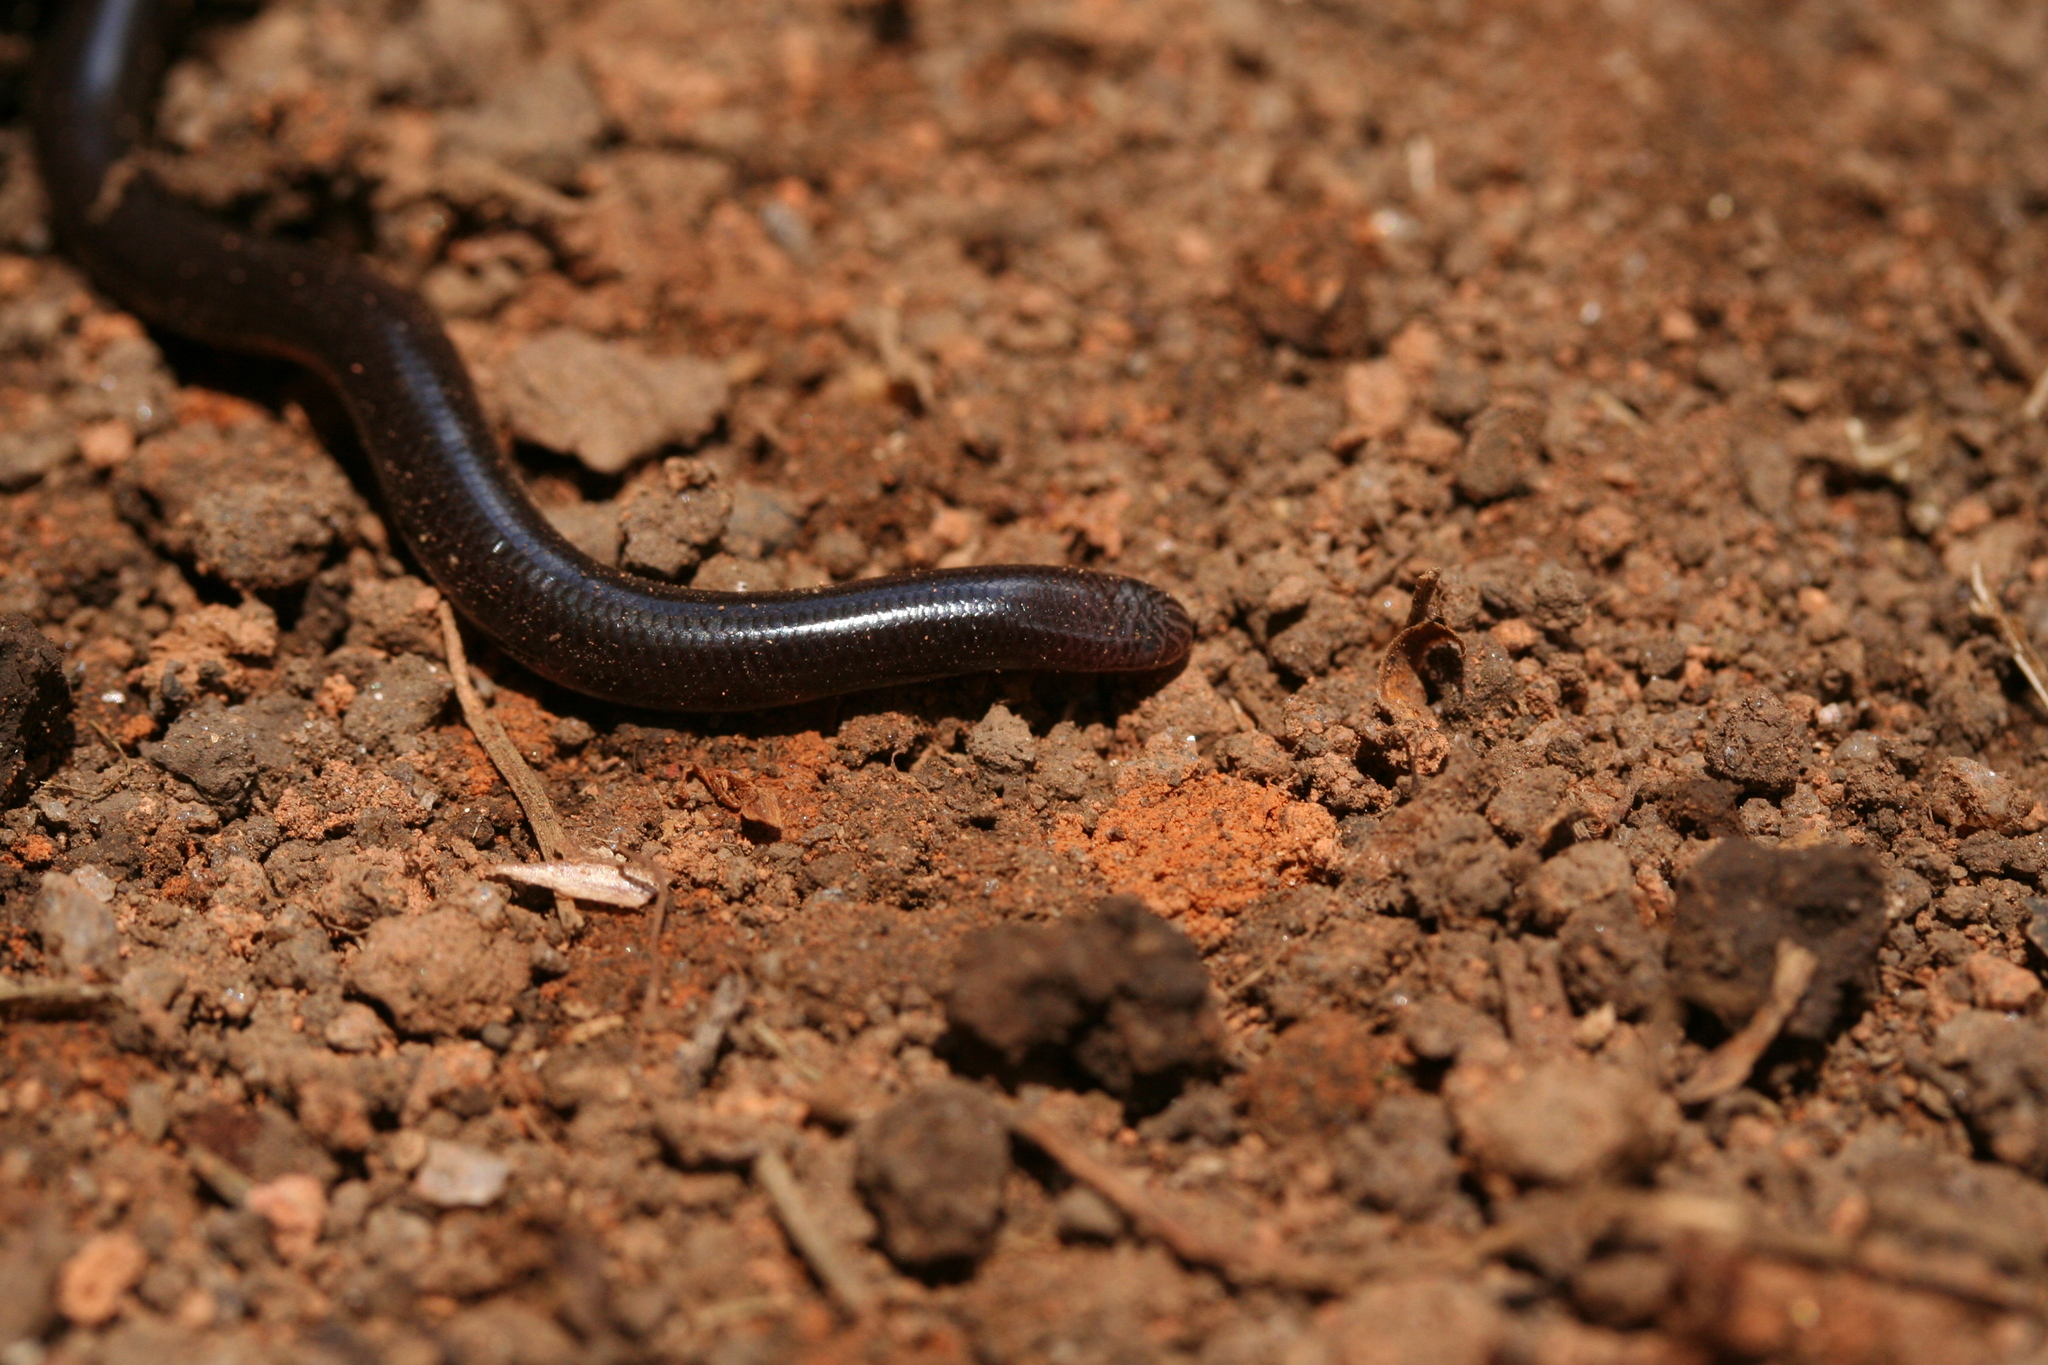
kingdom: Animalia
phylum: Chordata
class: Squamata
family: Typhlopidae
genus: Madatyphlops
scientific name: Madatyphlops domerguei
